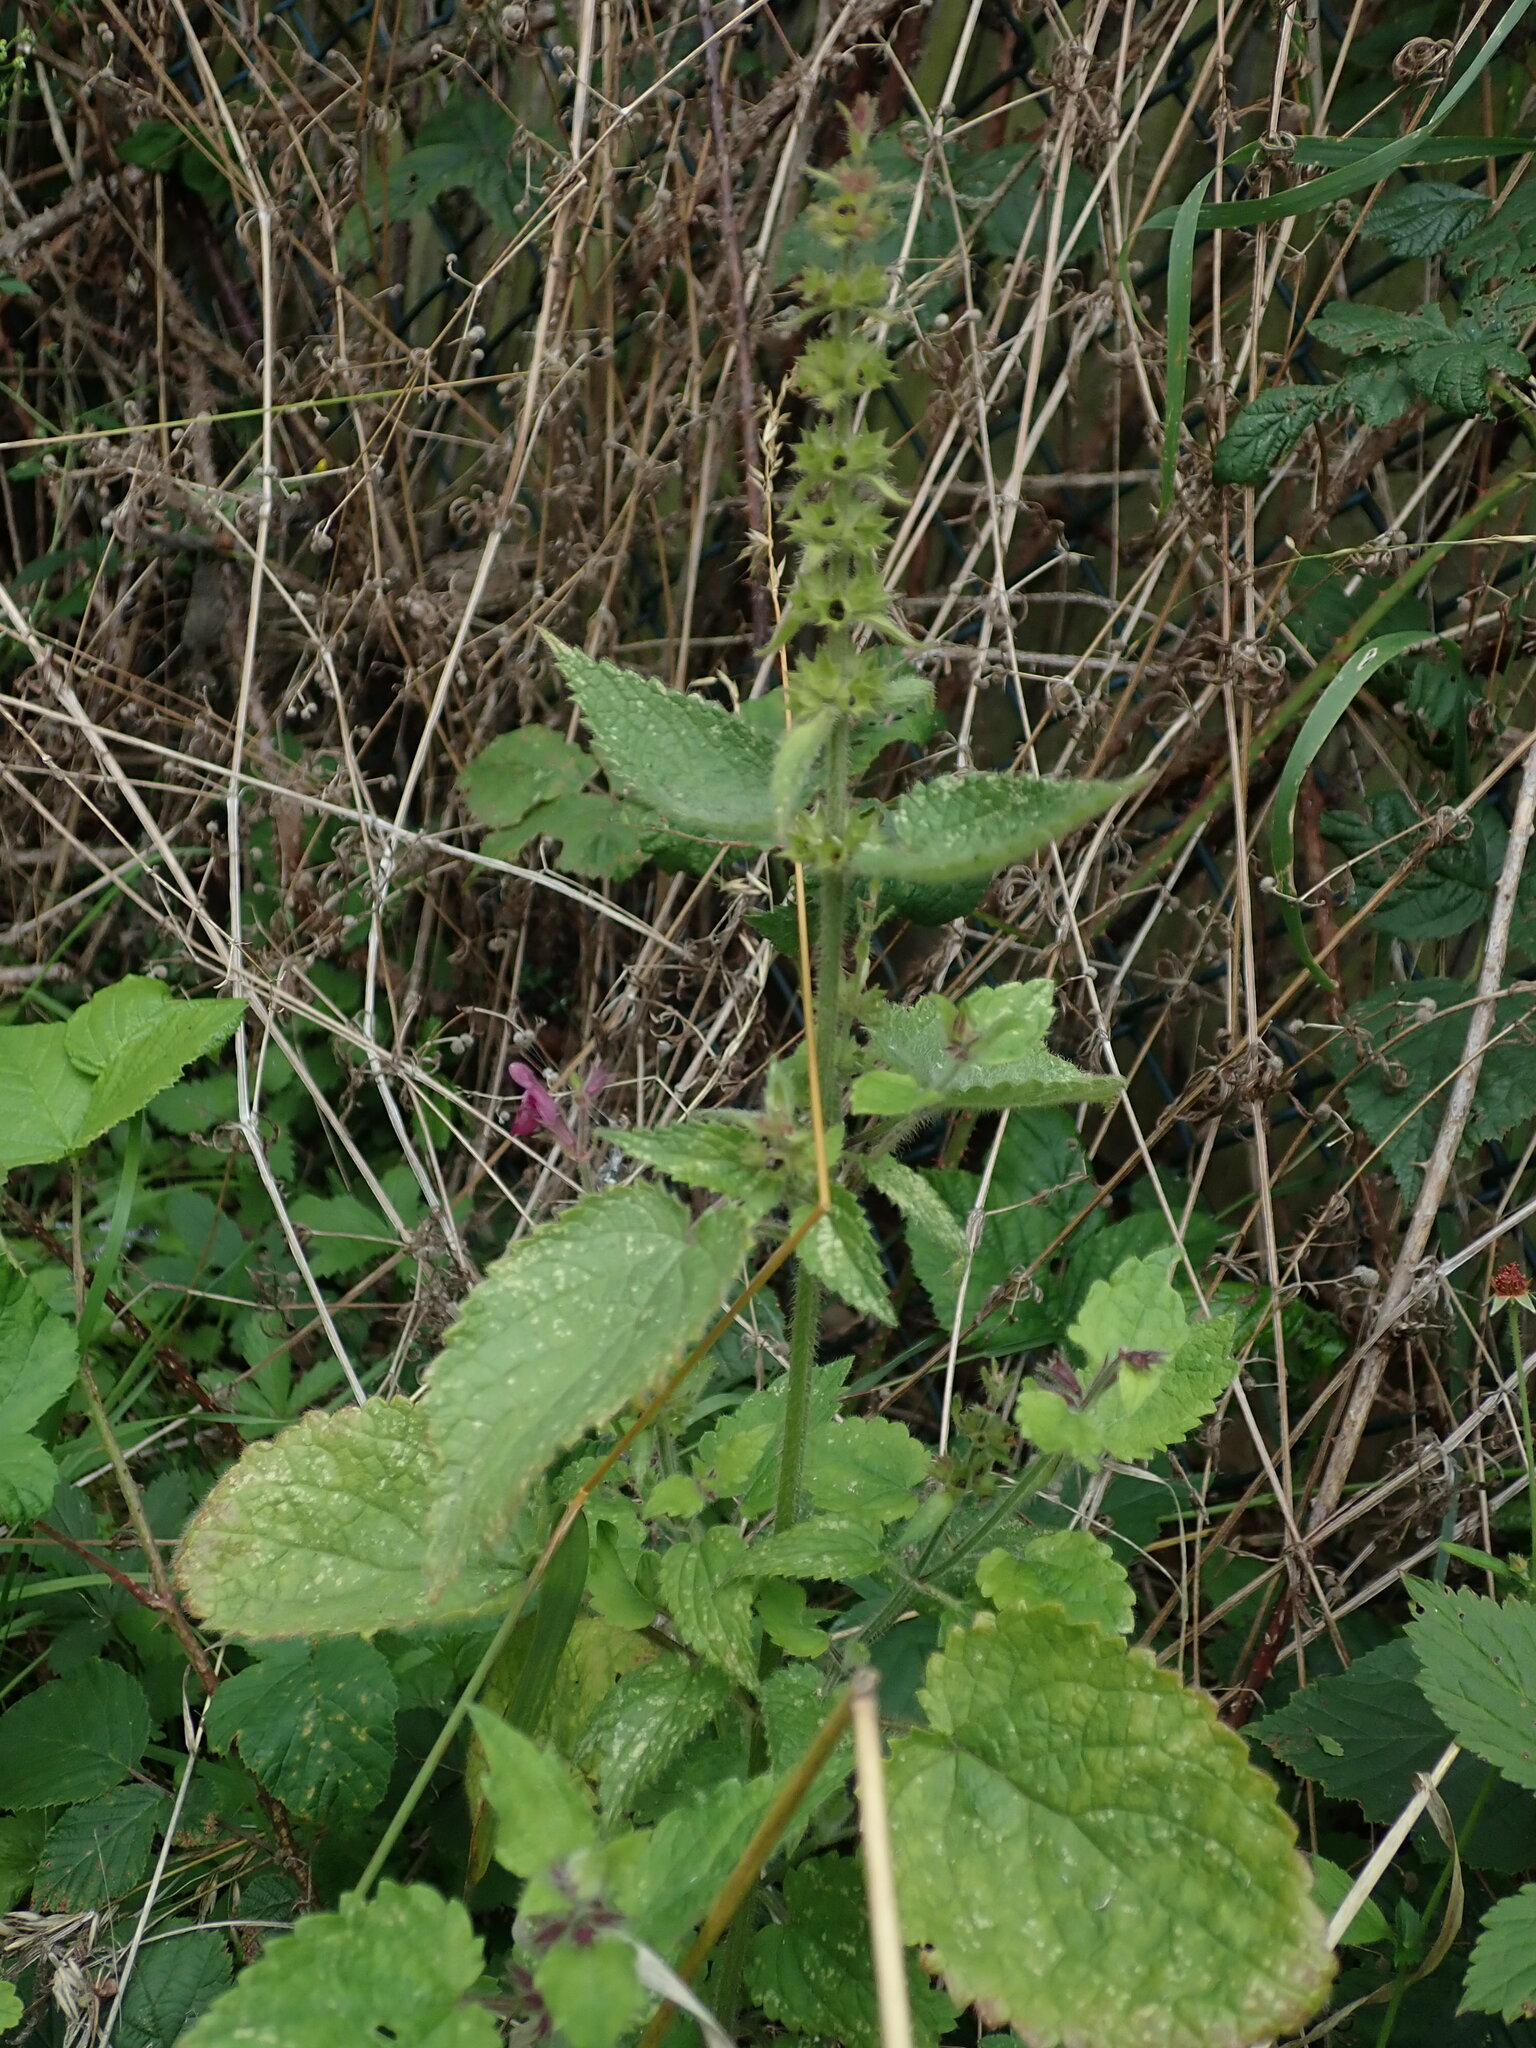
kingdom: Plantae
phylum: Tracheophyta
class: Magnoliopsida
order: Lamiales
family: Lamiaceae
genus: Stachys
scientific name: Stachys sylvatica
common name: Hedge woundwort
